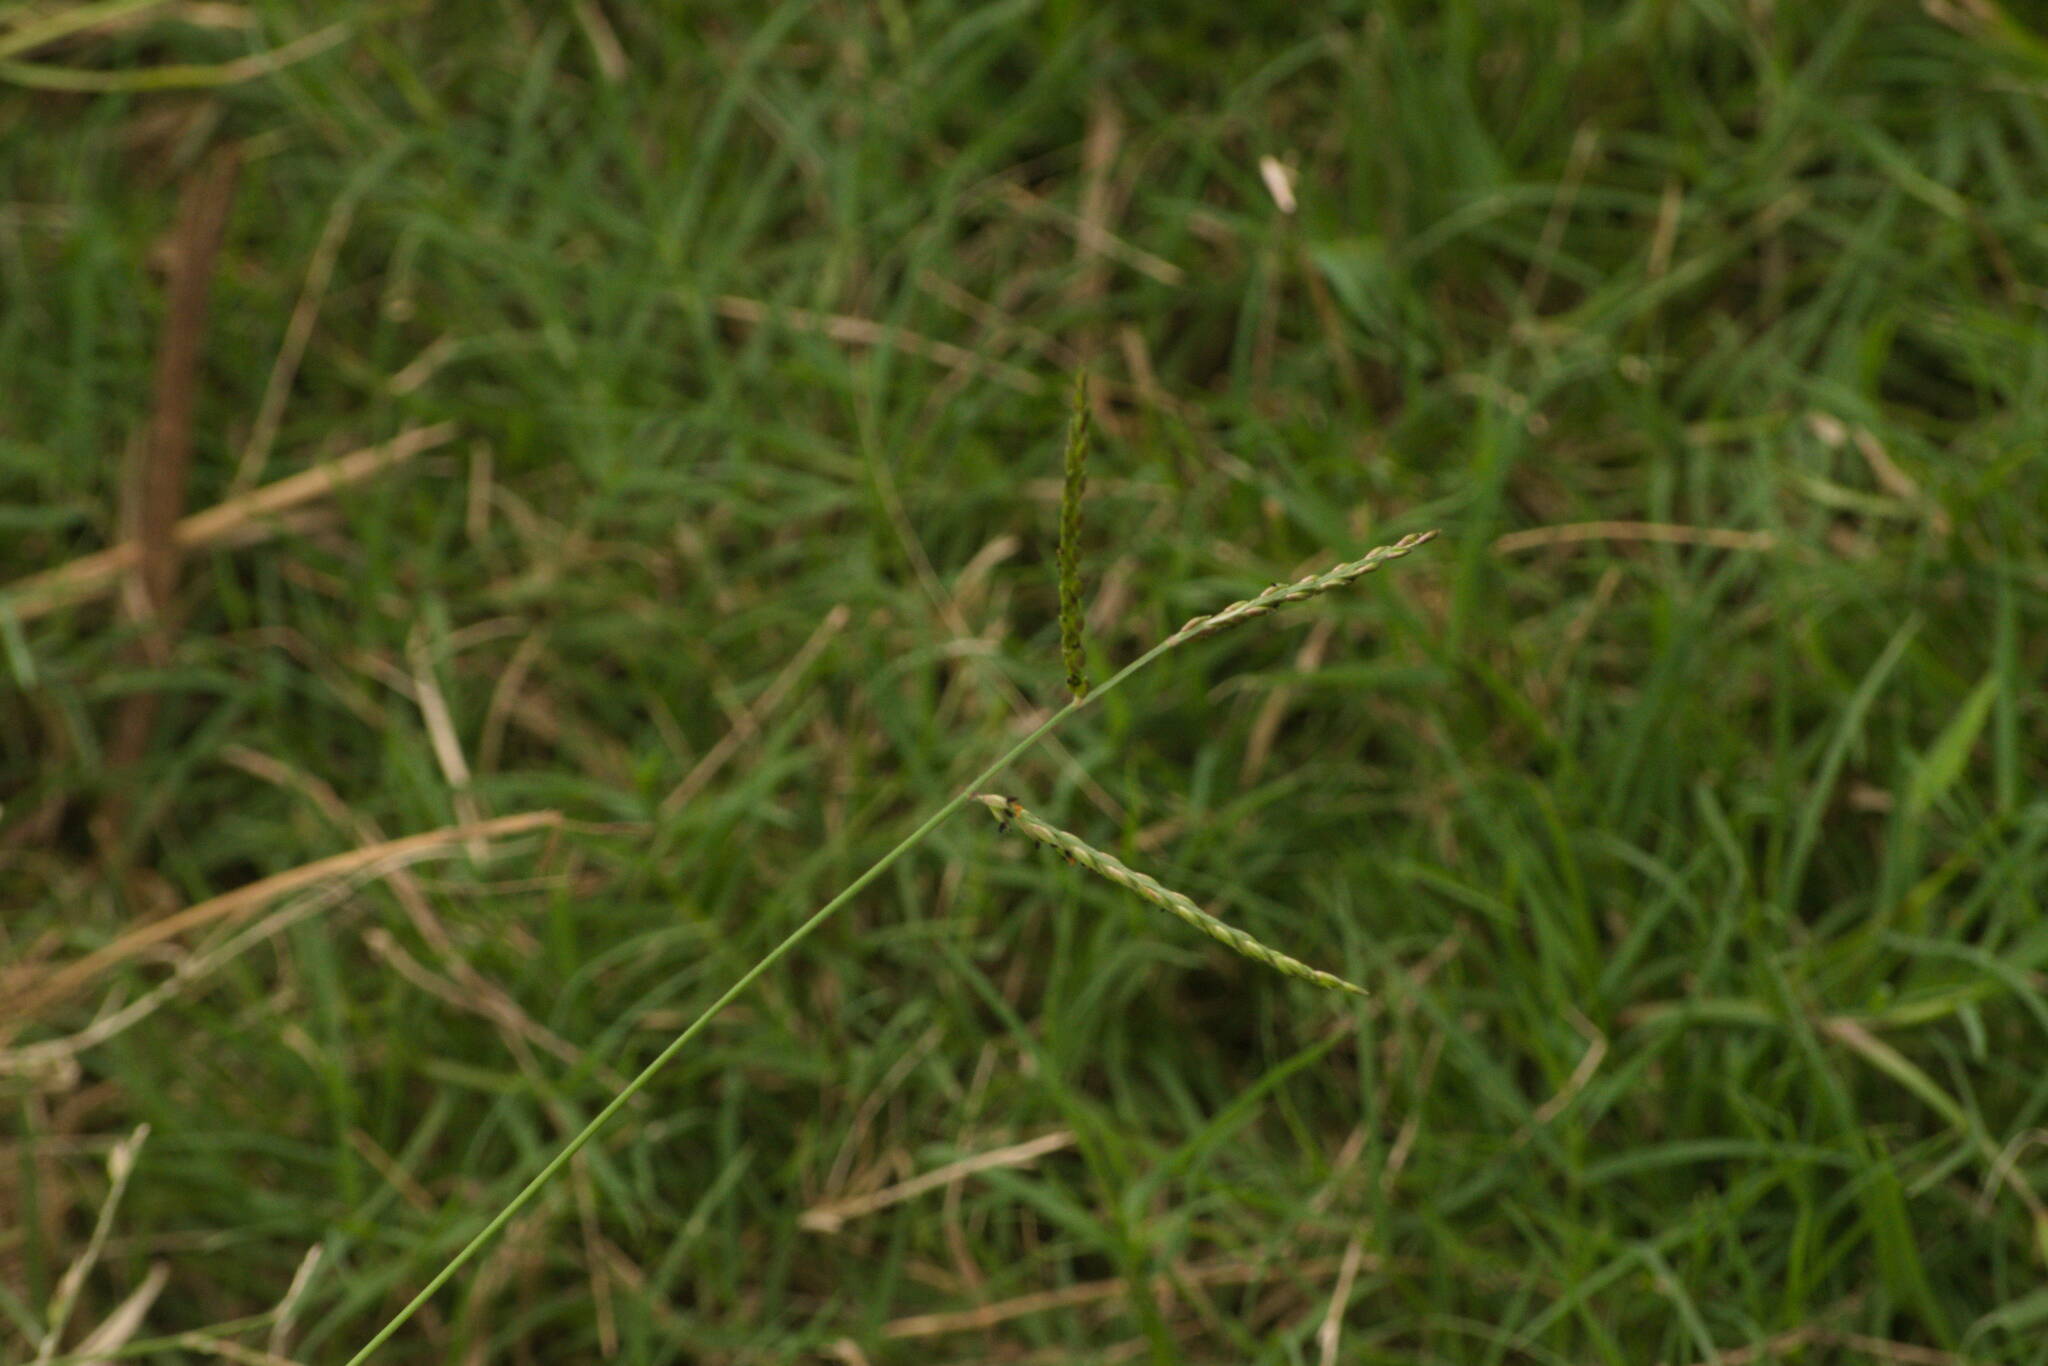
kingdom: Plantae
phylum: Tracheophyta
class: Liliopsida
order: Poales
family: Poaceae
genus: Urochloa
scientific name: Urochloa glumaris
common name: Thurston grass
